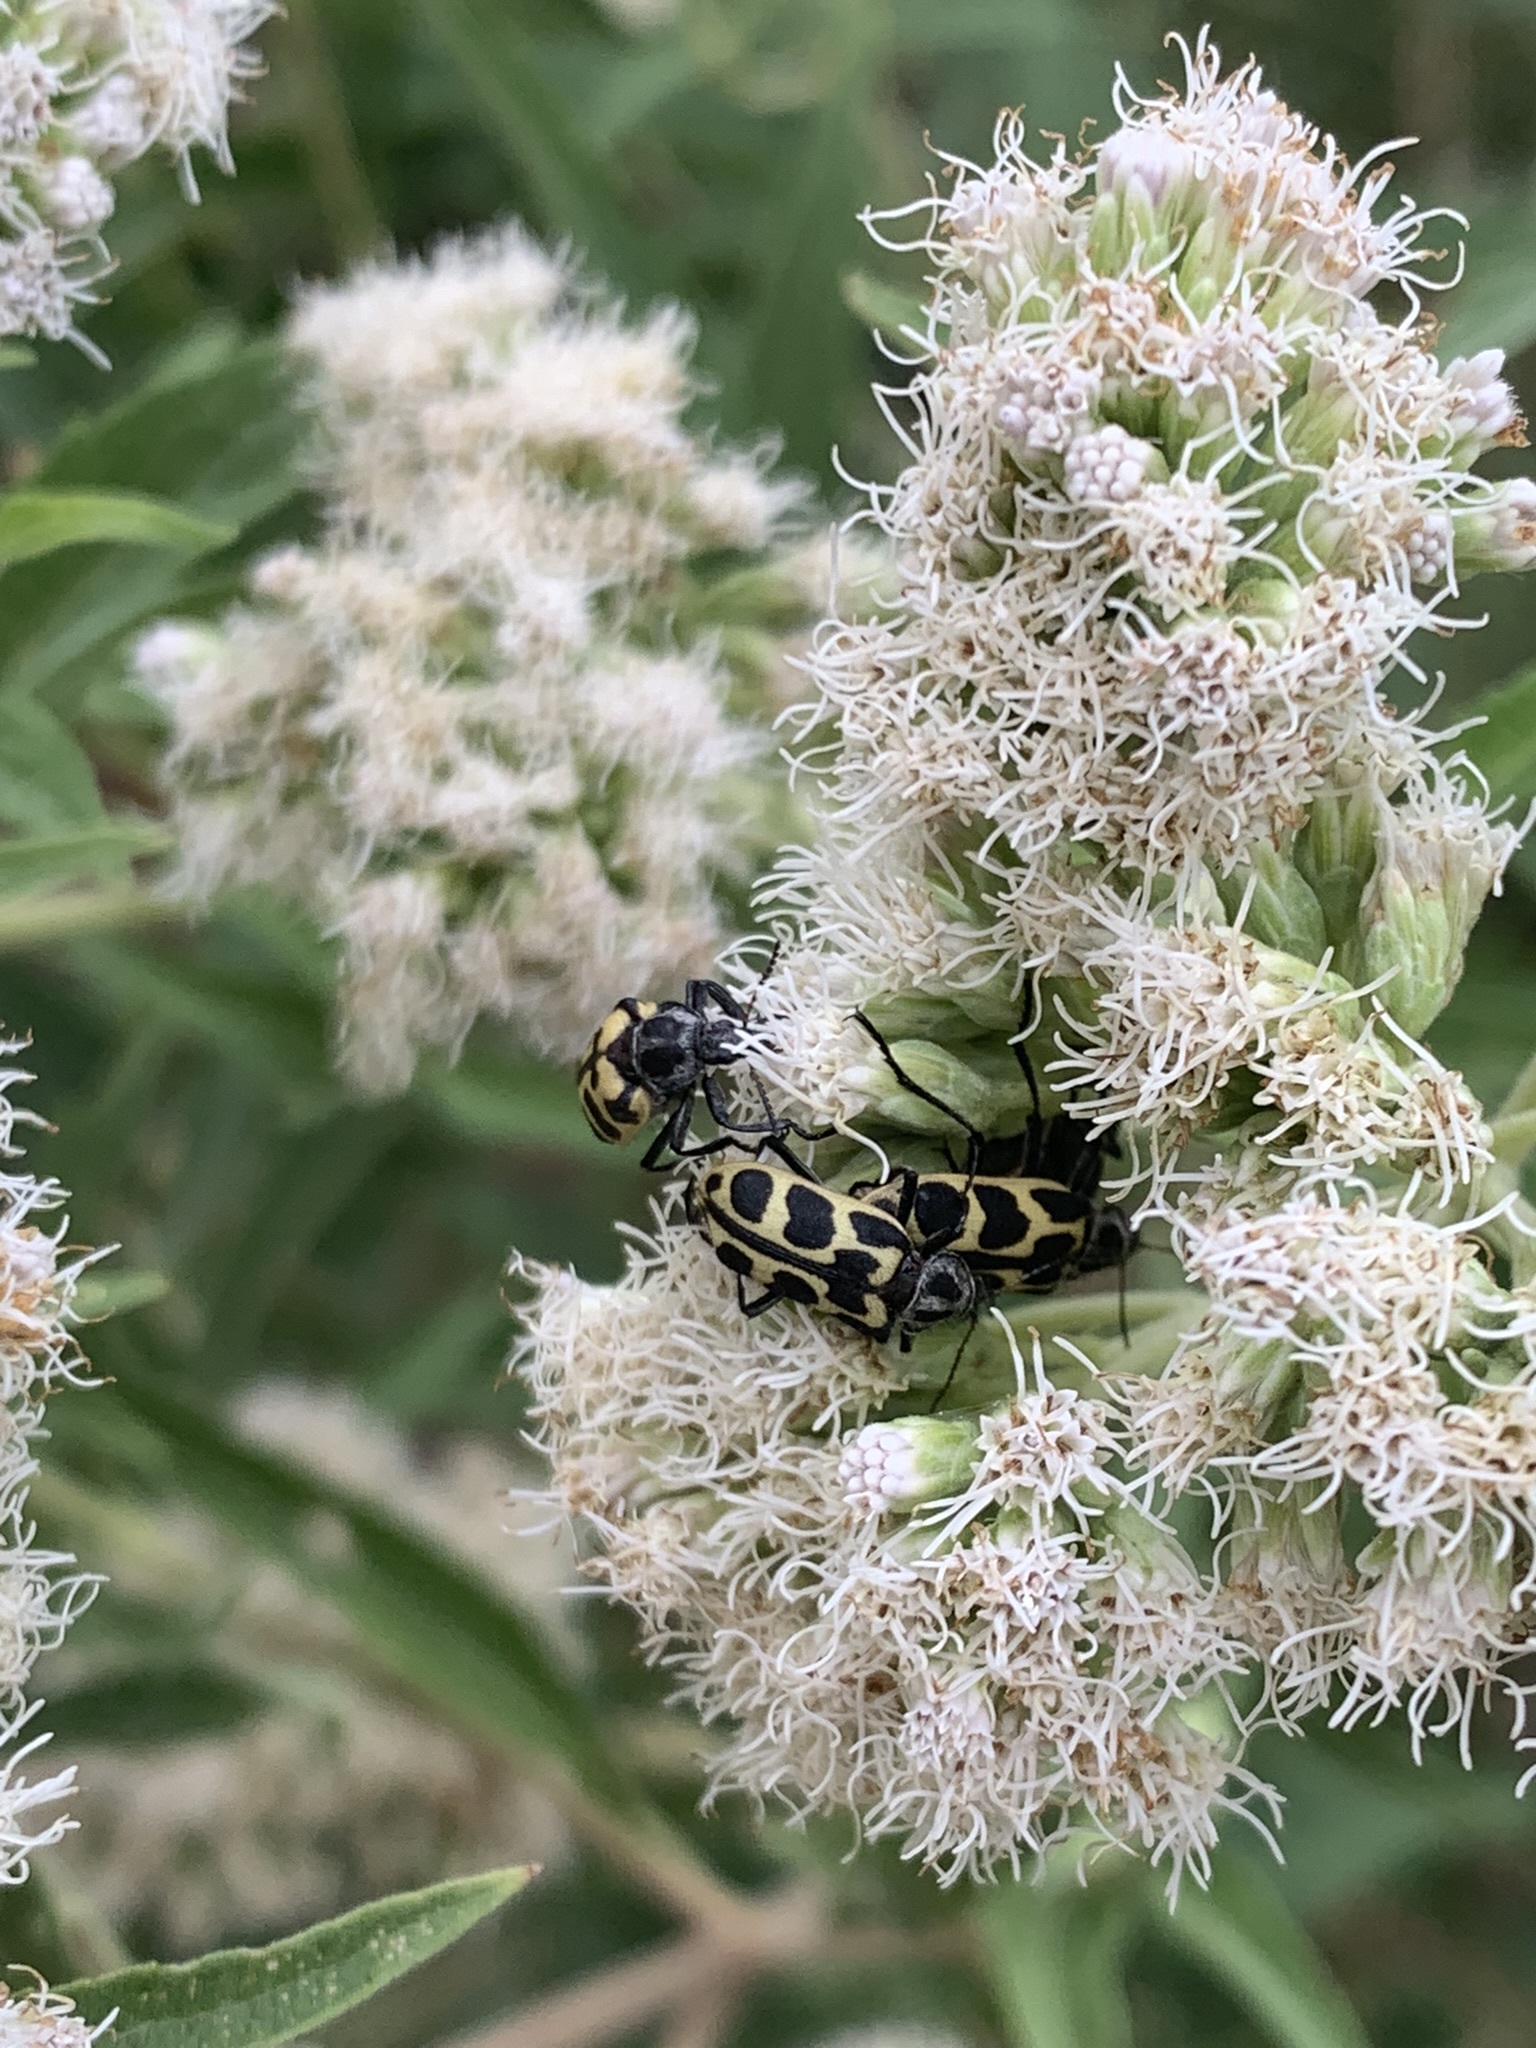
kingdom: Animalia
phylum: Arthropoda
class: Insecta
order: Coleoptera
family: Melyridae
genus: Astylus
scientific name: Astylus atromaculatus
